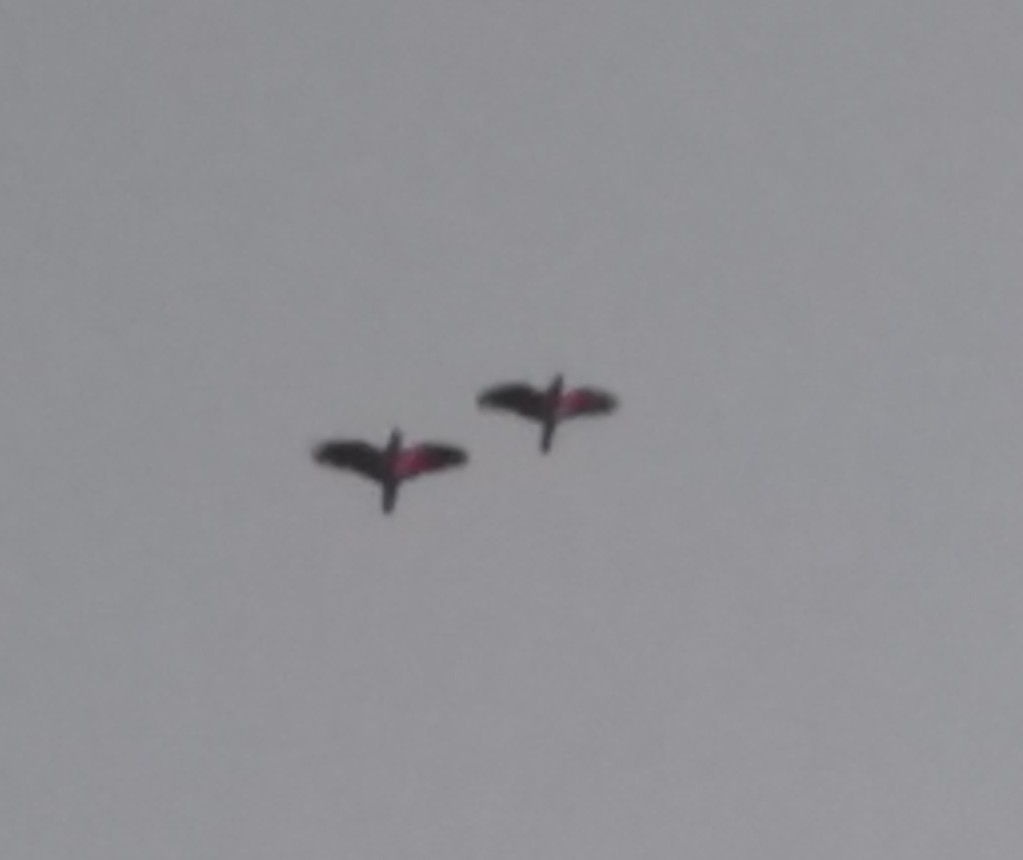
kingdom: Animalia
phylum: Chordata
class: Aves
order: Psittaciformes
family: Psittacidae
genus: Amazona
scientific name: Amazona aestiva
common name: Turquoise-fronted amazon
